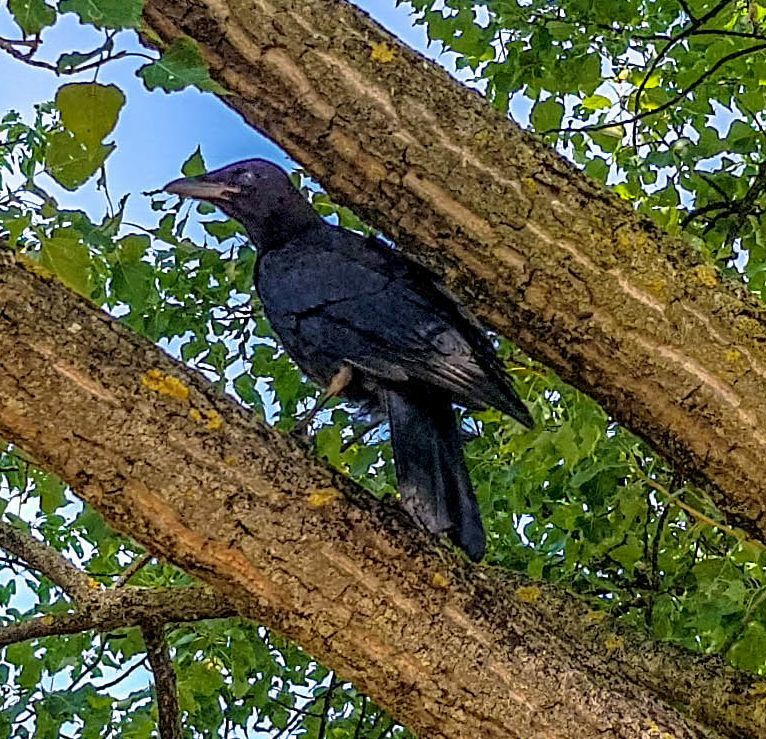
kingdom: Animalia
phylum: Chordata
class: Aves
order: Passeriformes
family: Corvidae
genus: Corvus
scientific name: Corvus corone
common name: Carrion crow
